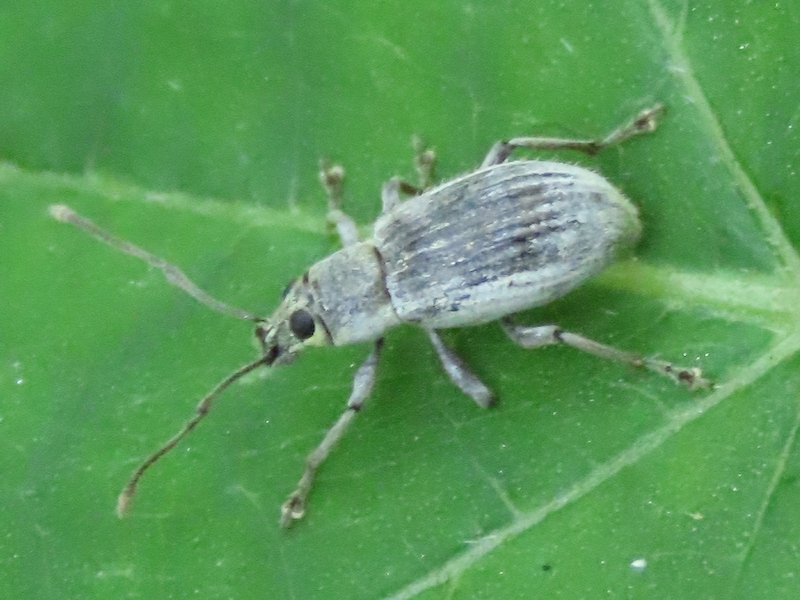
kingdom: Animalia
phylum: Arthropoda
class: Insecta
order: Coleoptera
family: Curculionidae
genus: Cyrtepistomus
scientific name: Cyrtepistomus castaneus
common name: Weevil
